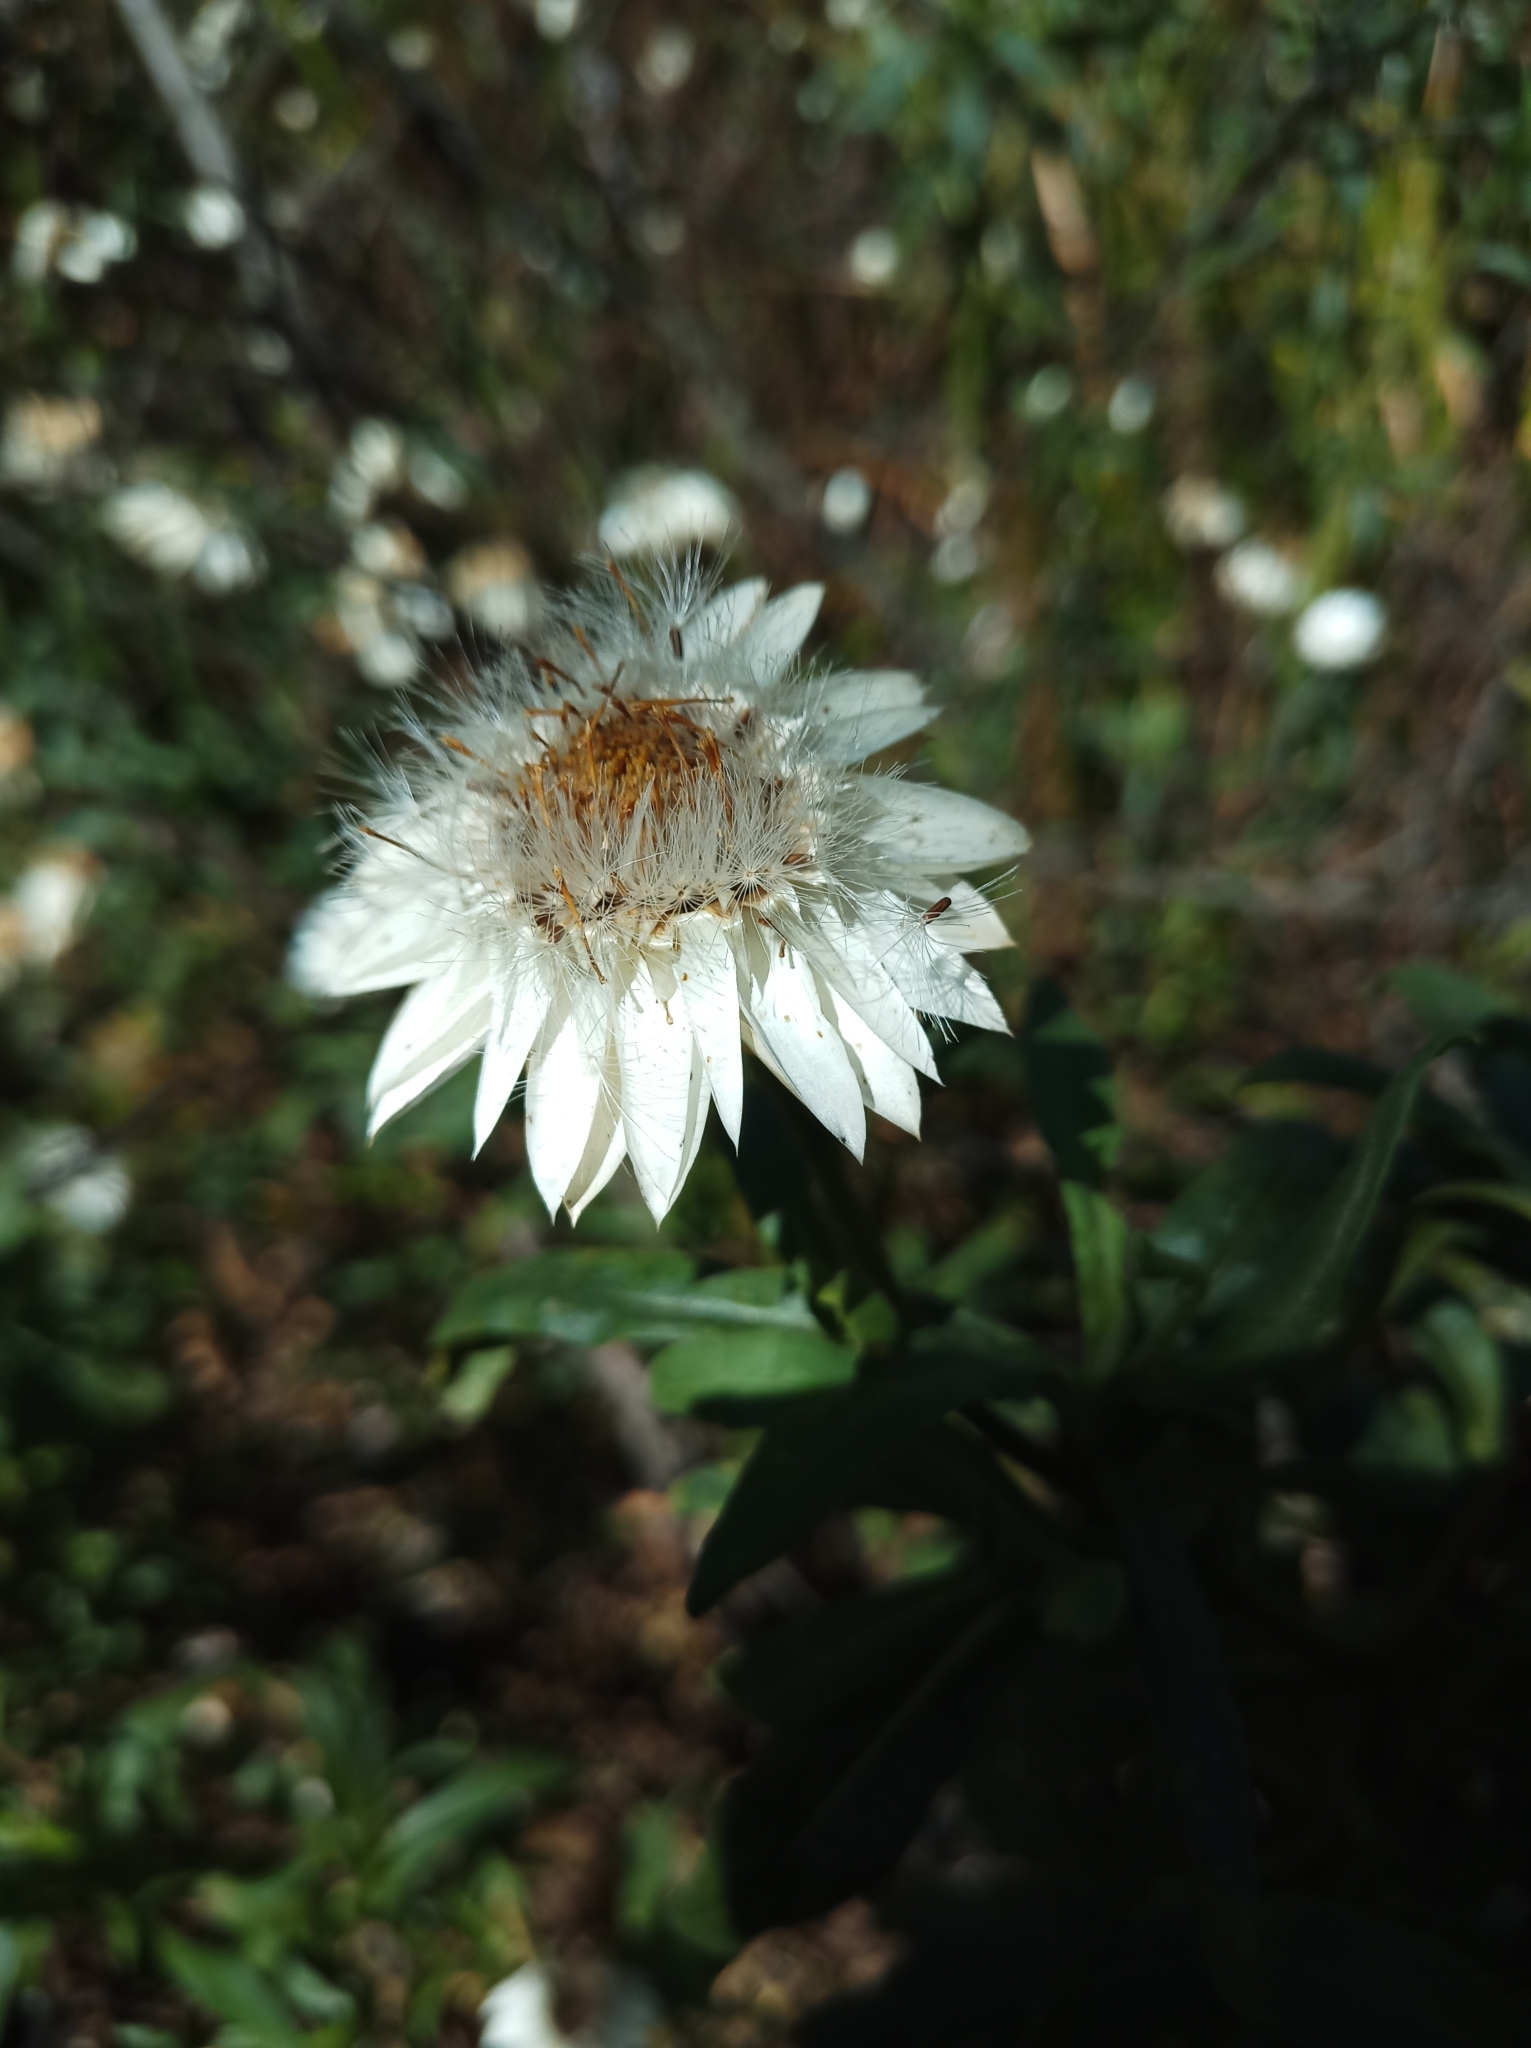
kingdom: Plantae
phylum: Tracheophyta
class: Magnoliopsida
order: Asterales
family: Asteraceae
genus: Xerochrysum
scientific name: Xerochrysum wilsonii
